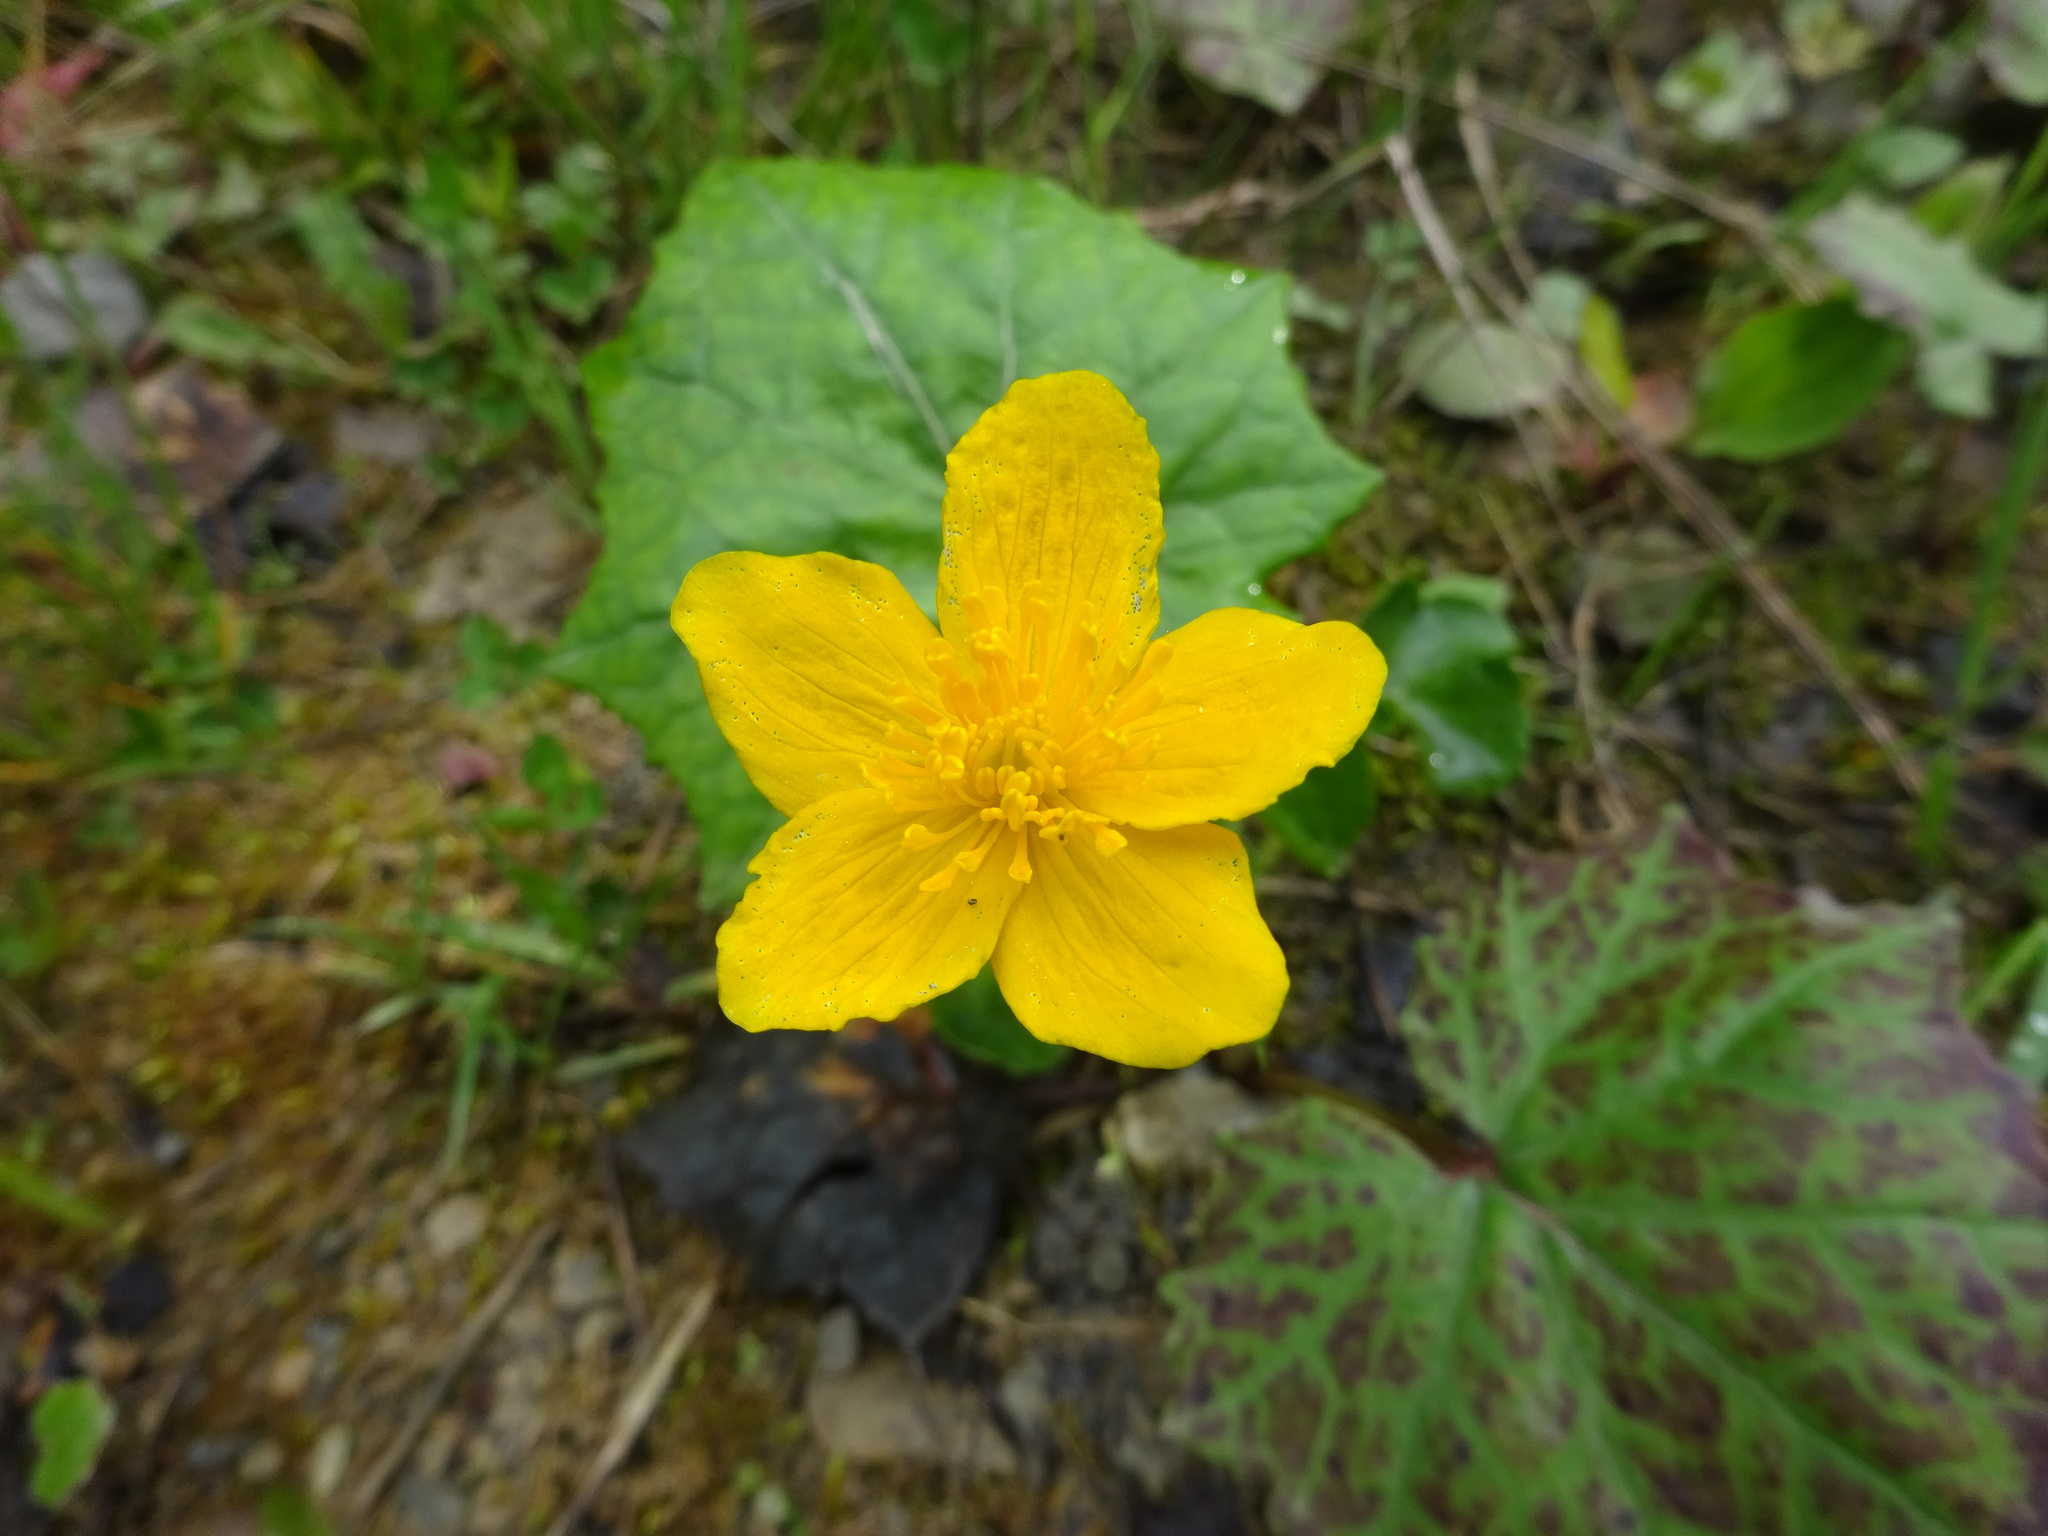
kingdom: Plantae
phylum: Tracheophyta
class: Magnoliopsida
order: Ranunculales
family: Ranunculaceae
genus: Caltha
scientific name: Caltha palustris
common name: Marsh marigold
